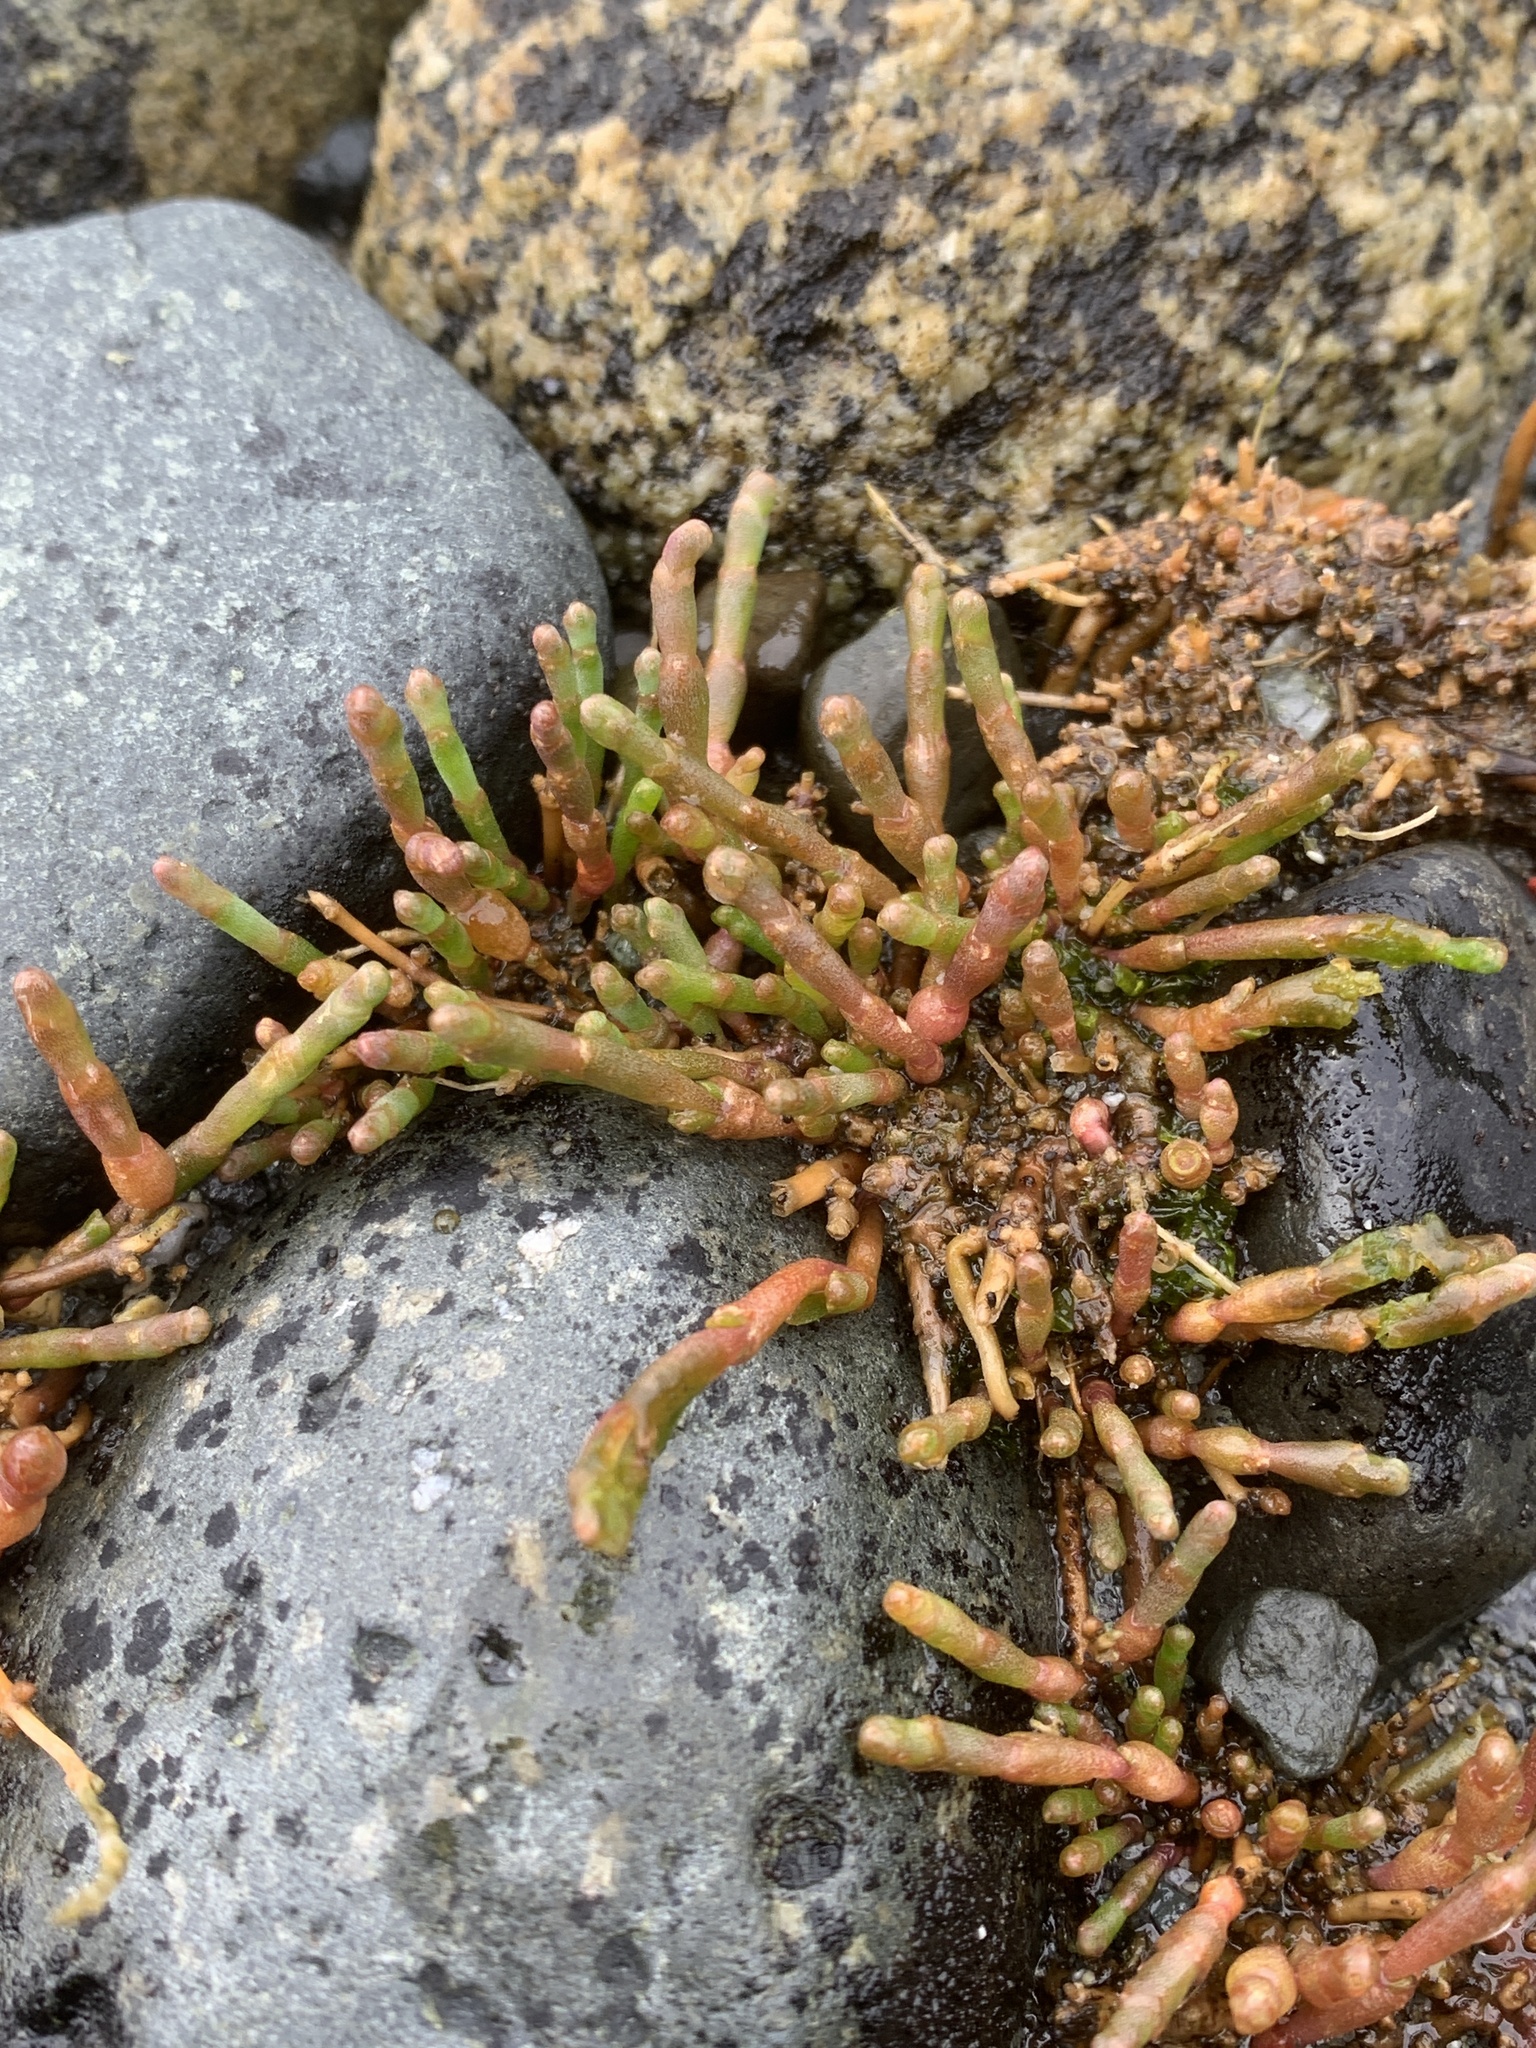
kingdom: Plantae
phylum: Tracheophyta
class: Magnoliopsida
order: Caryophyllales
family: Amaranthaceae
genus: Salicornia
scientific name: Salicornia pacifica
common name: Pacific glasswort
